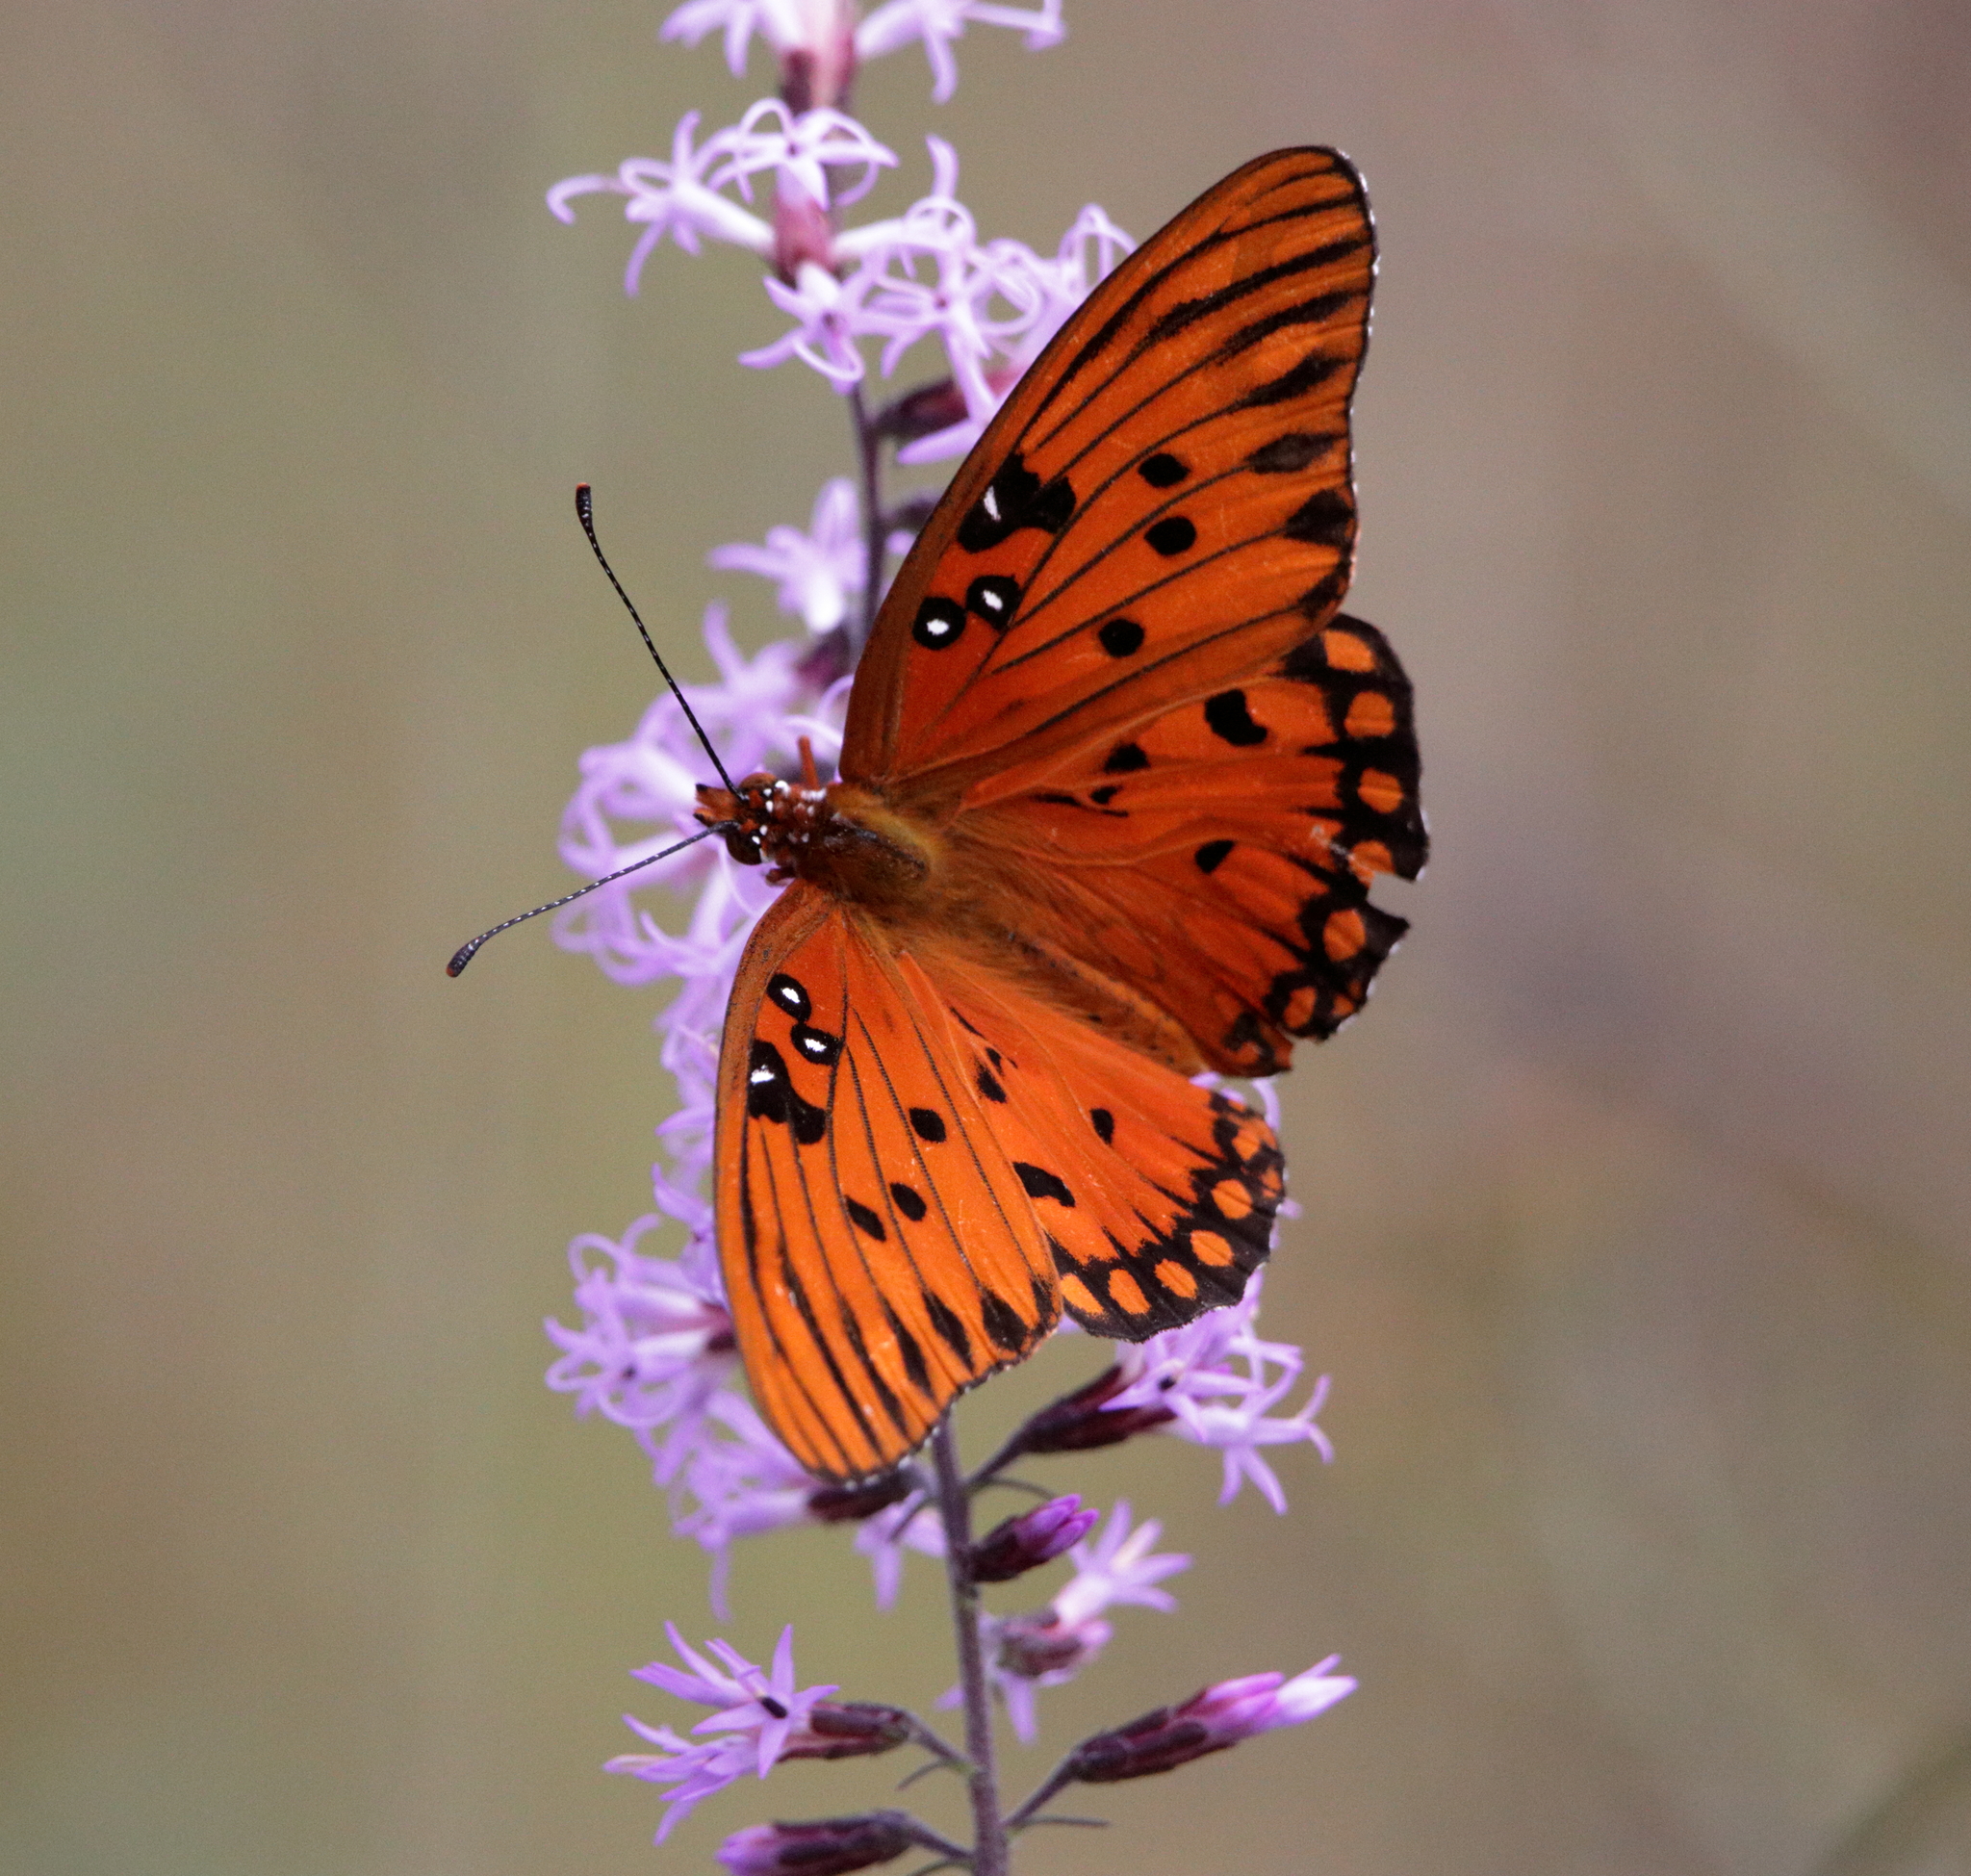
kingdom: Animalia
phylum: Arthropoda
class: Insecta
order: Lepidoptera
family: Nymphalidae
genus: Dione
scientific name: Dione vanillae
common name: Gulf fritillary
